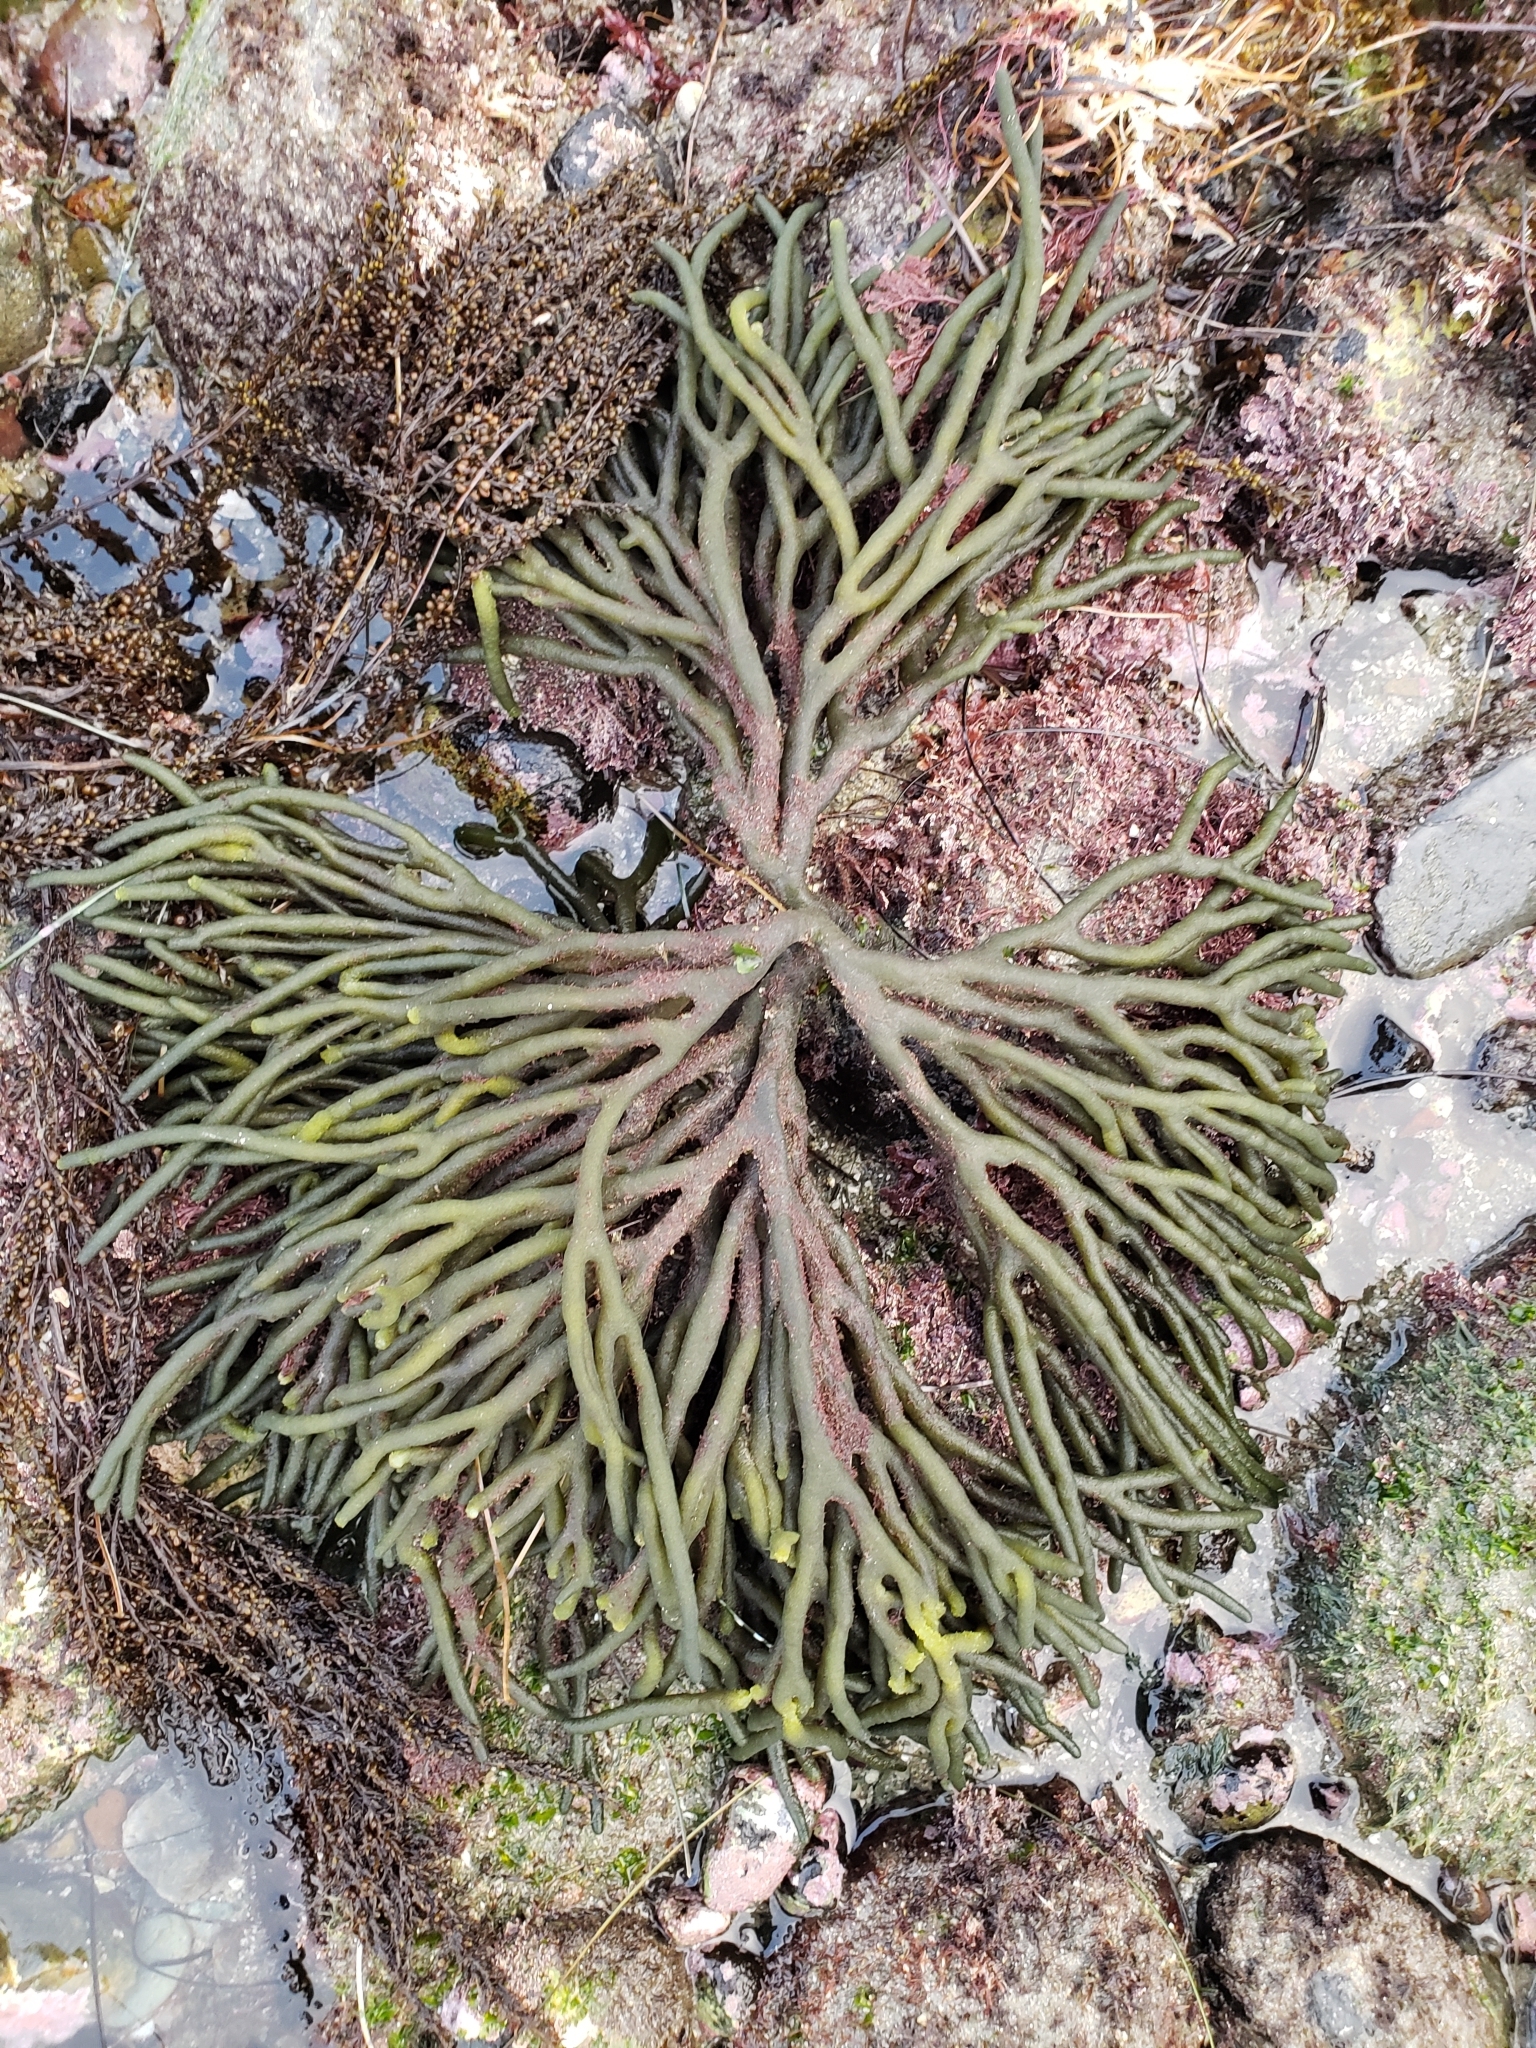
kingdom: Plantae
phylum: Chlorophyta
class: Ulvophyceae
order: Bryopsidales
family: Codiaceae
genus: Codium
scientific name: Codium fragile
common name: Dead man's fingers
